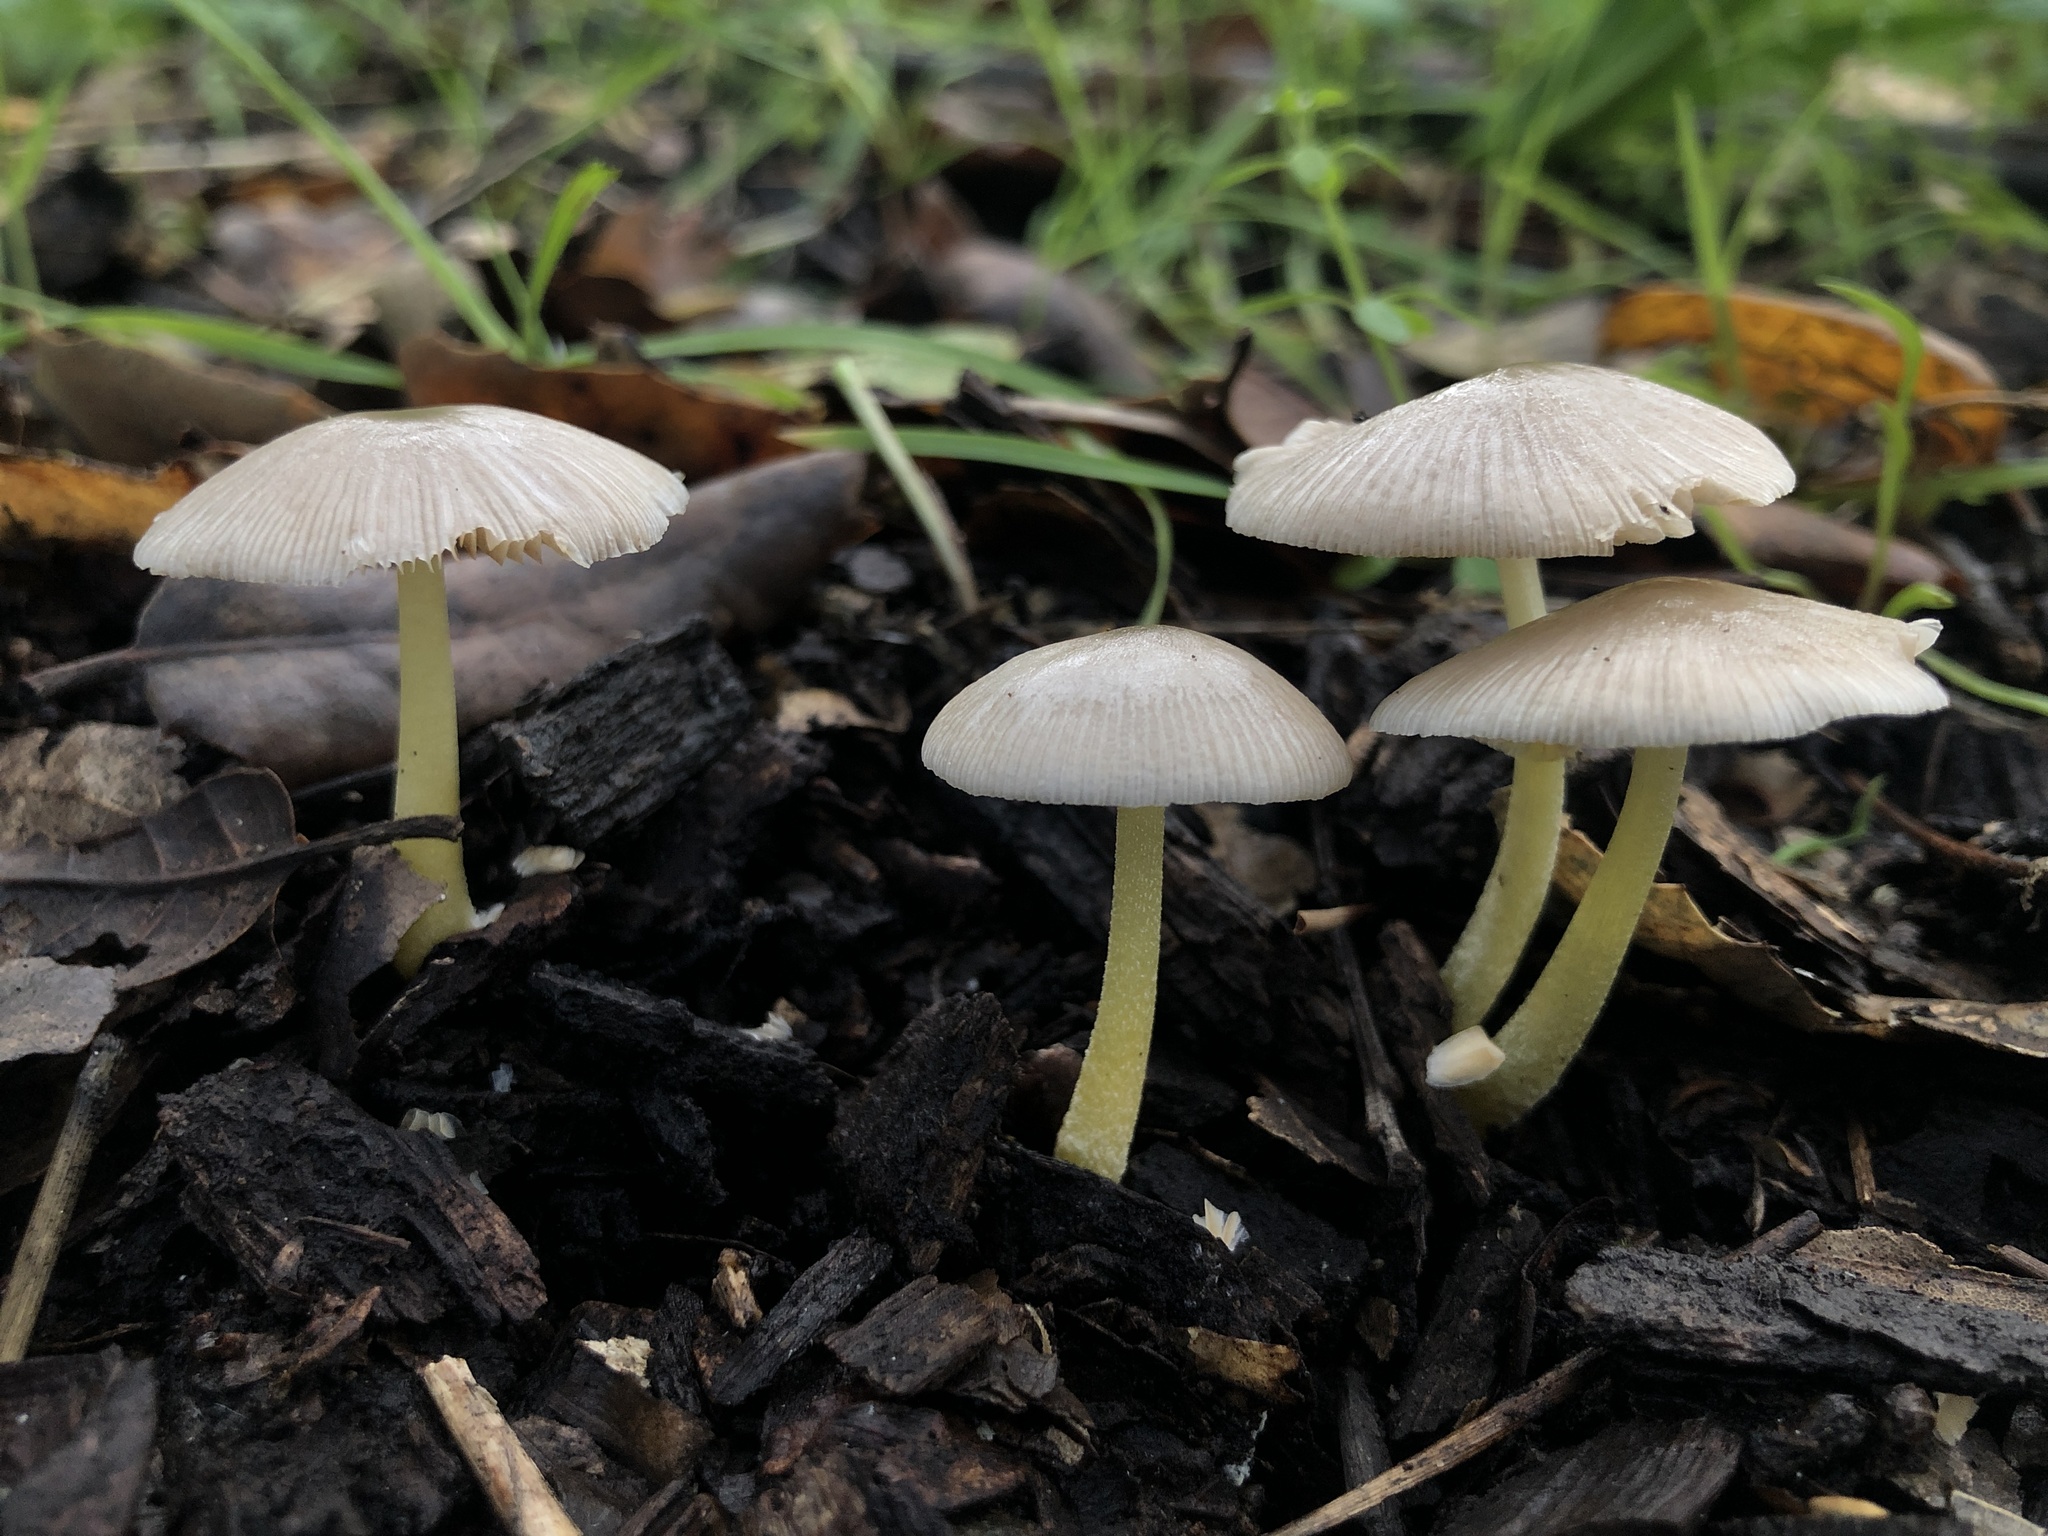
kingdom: Fungi
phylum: Basidiomycota
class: Agaricomycetes
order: Agaricales
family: Bolbitiaceae
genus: Bolbitius
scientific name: Bolbitius reticulatus
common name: Netted fieldcap
